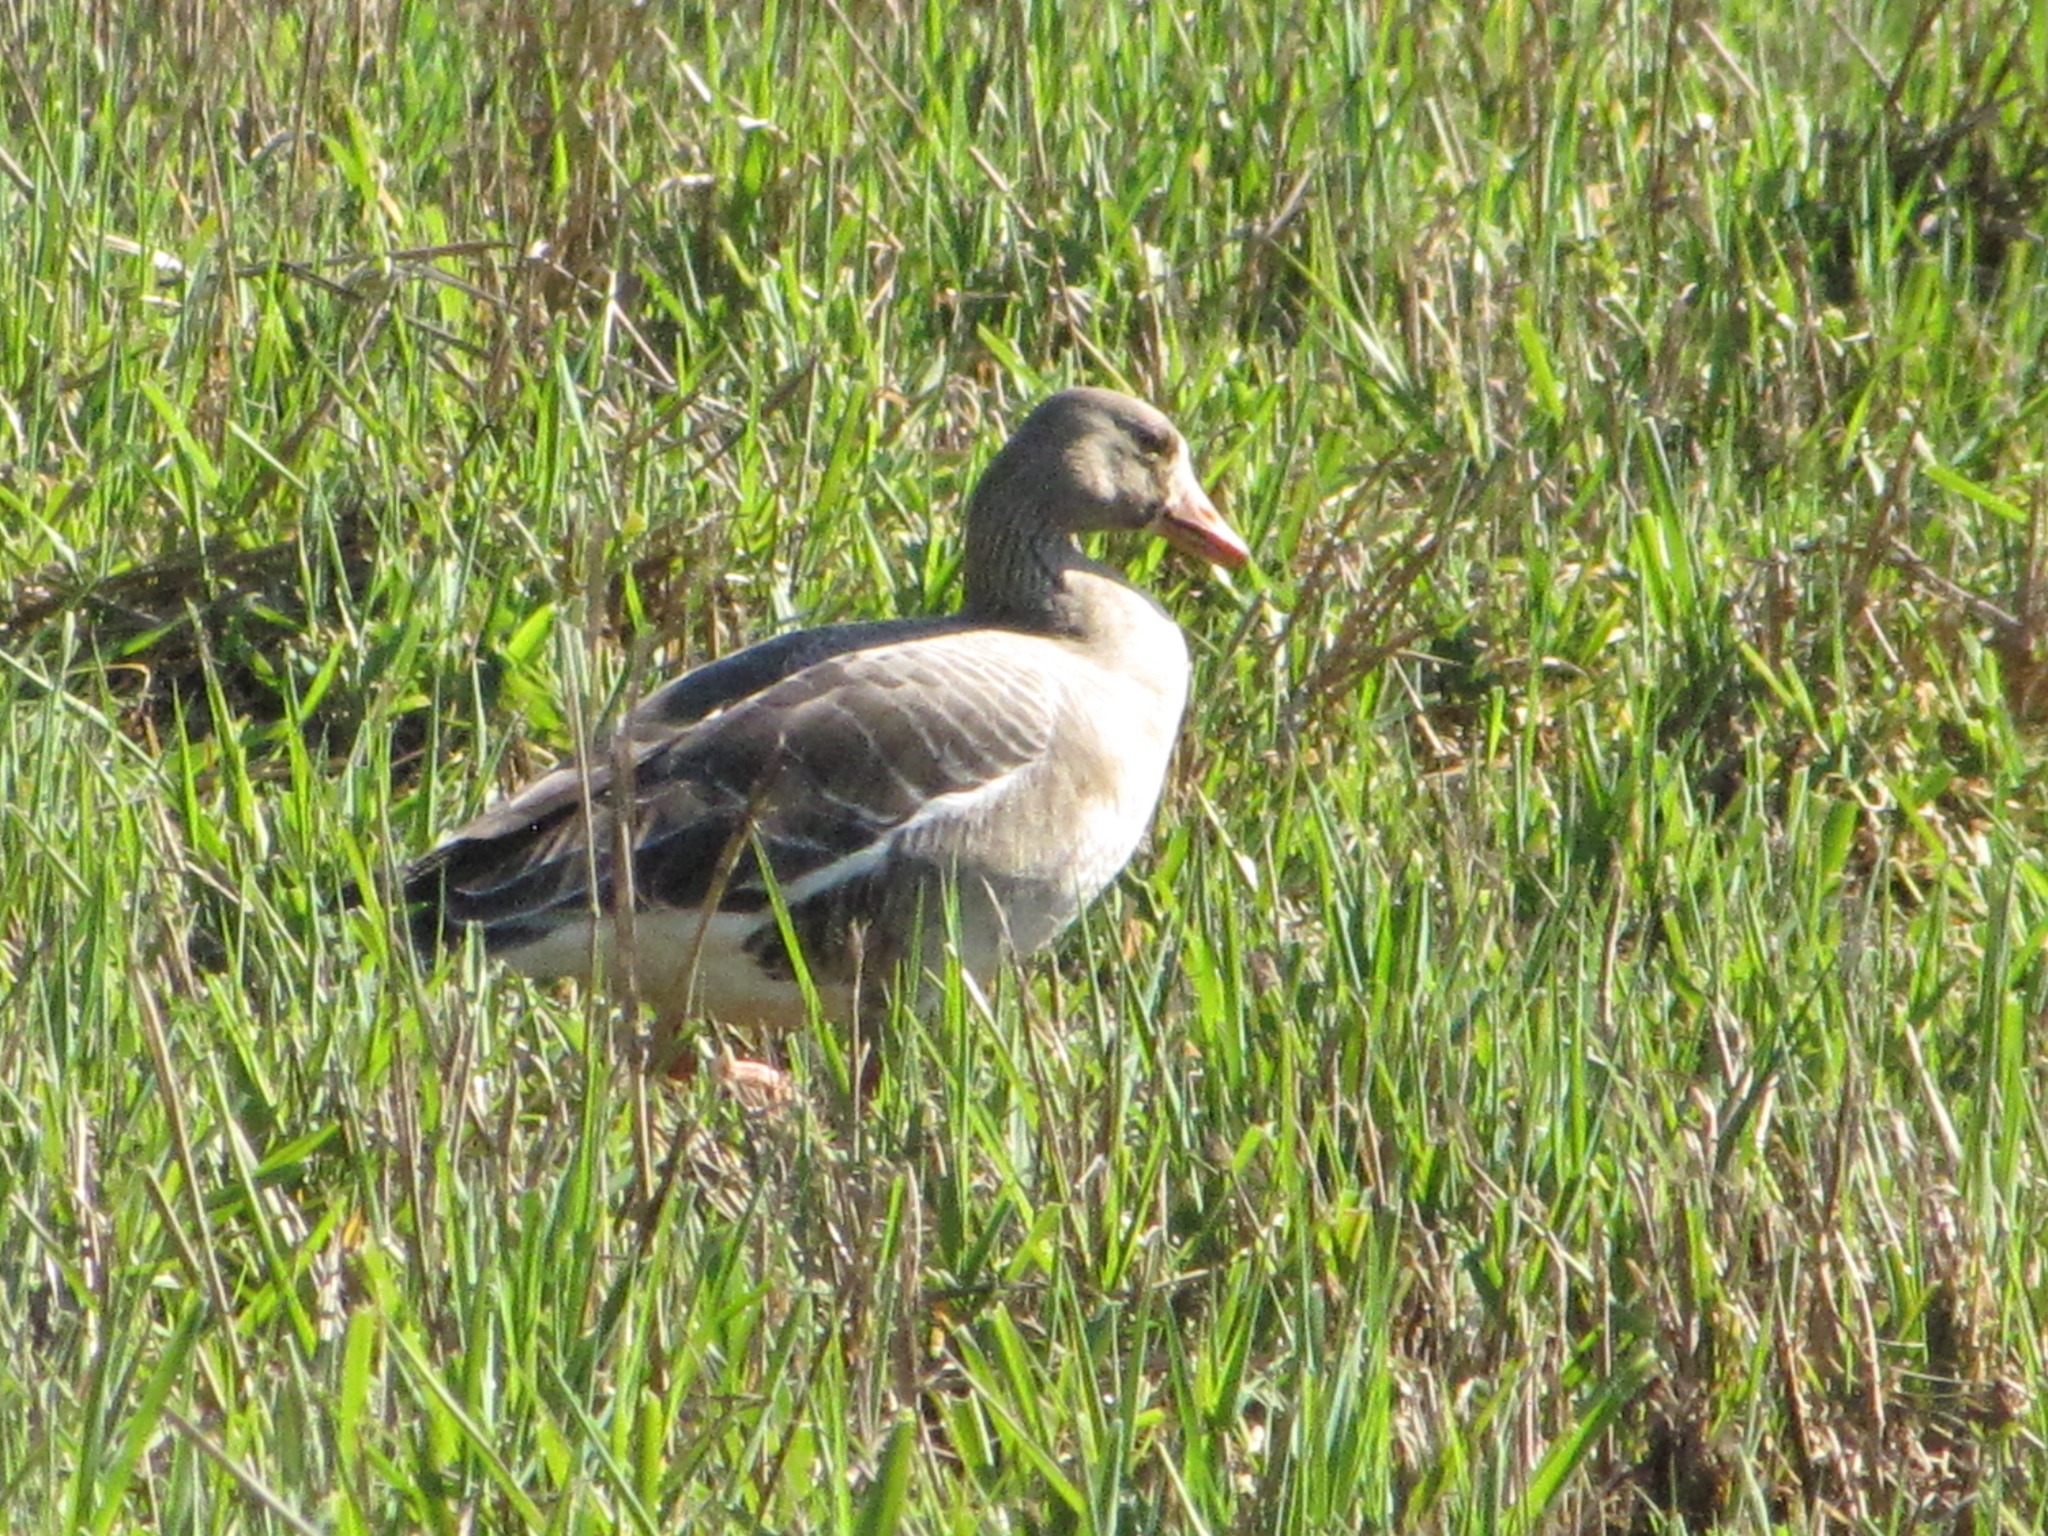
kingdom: Animalia
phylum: Chordata
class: Aves
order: Anseriformes
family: Anatidae
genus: Anser
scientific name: Anser albifrons
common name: Greater white-fronted goose
